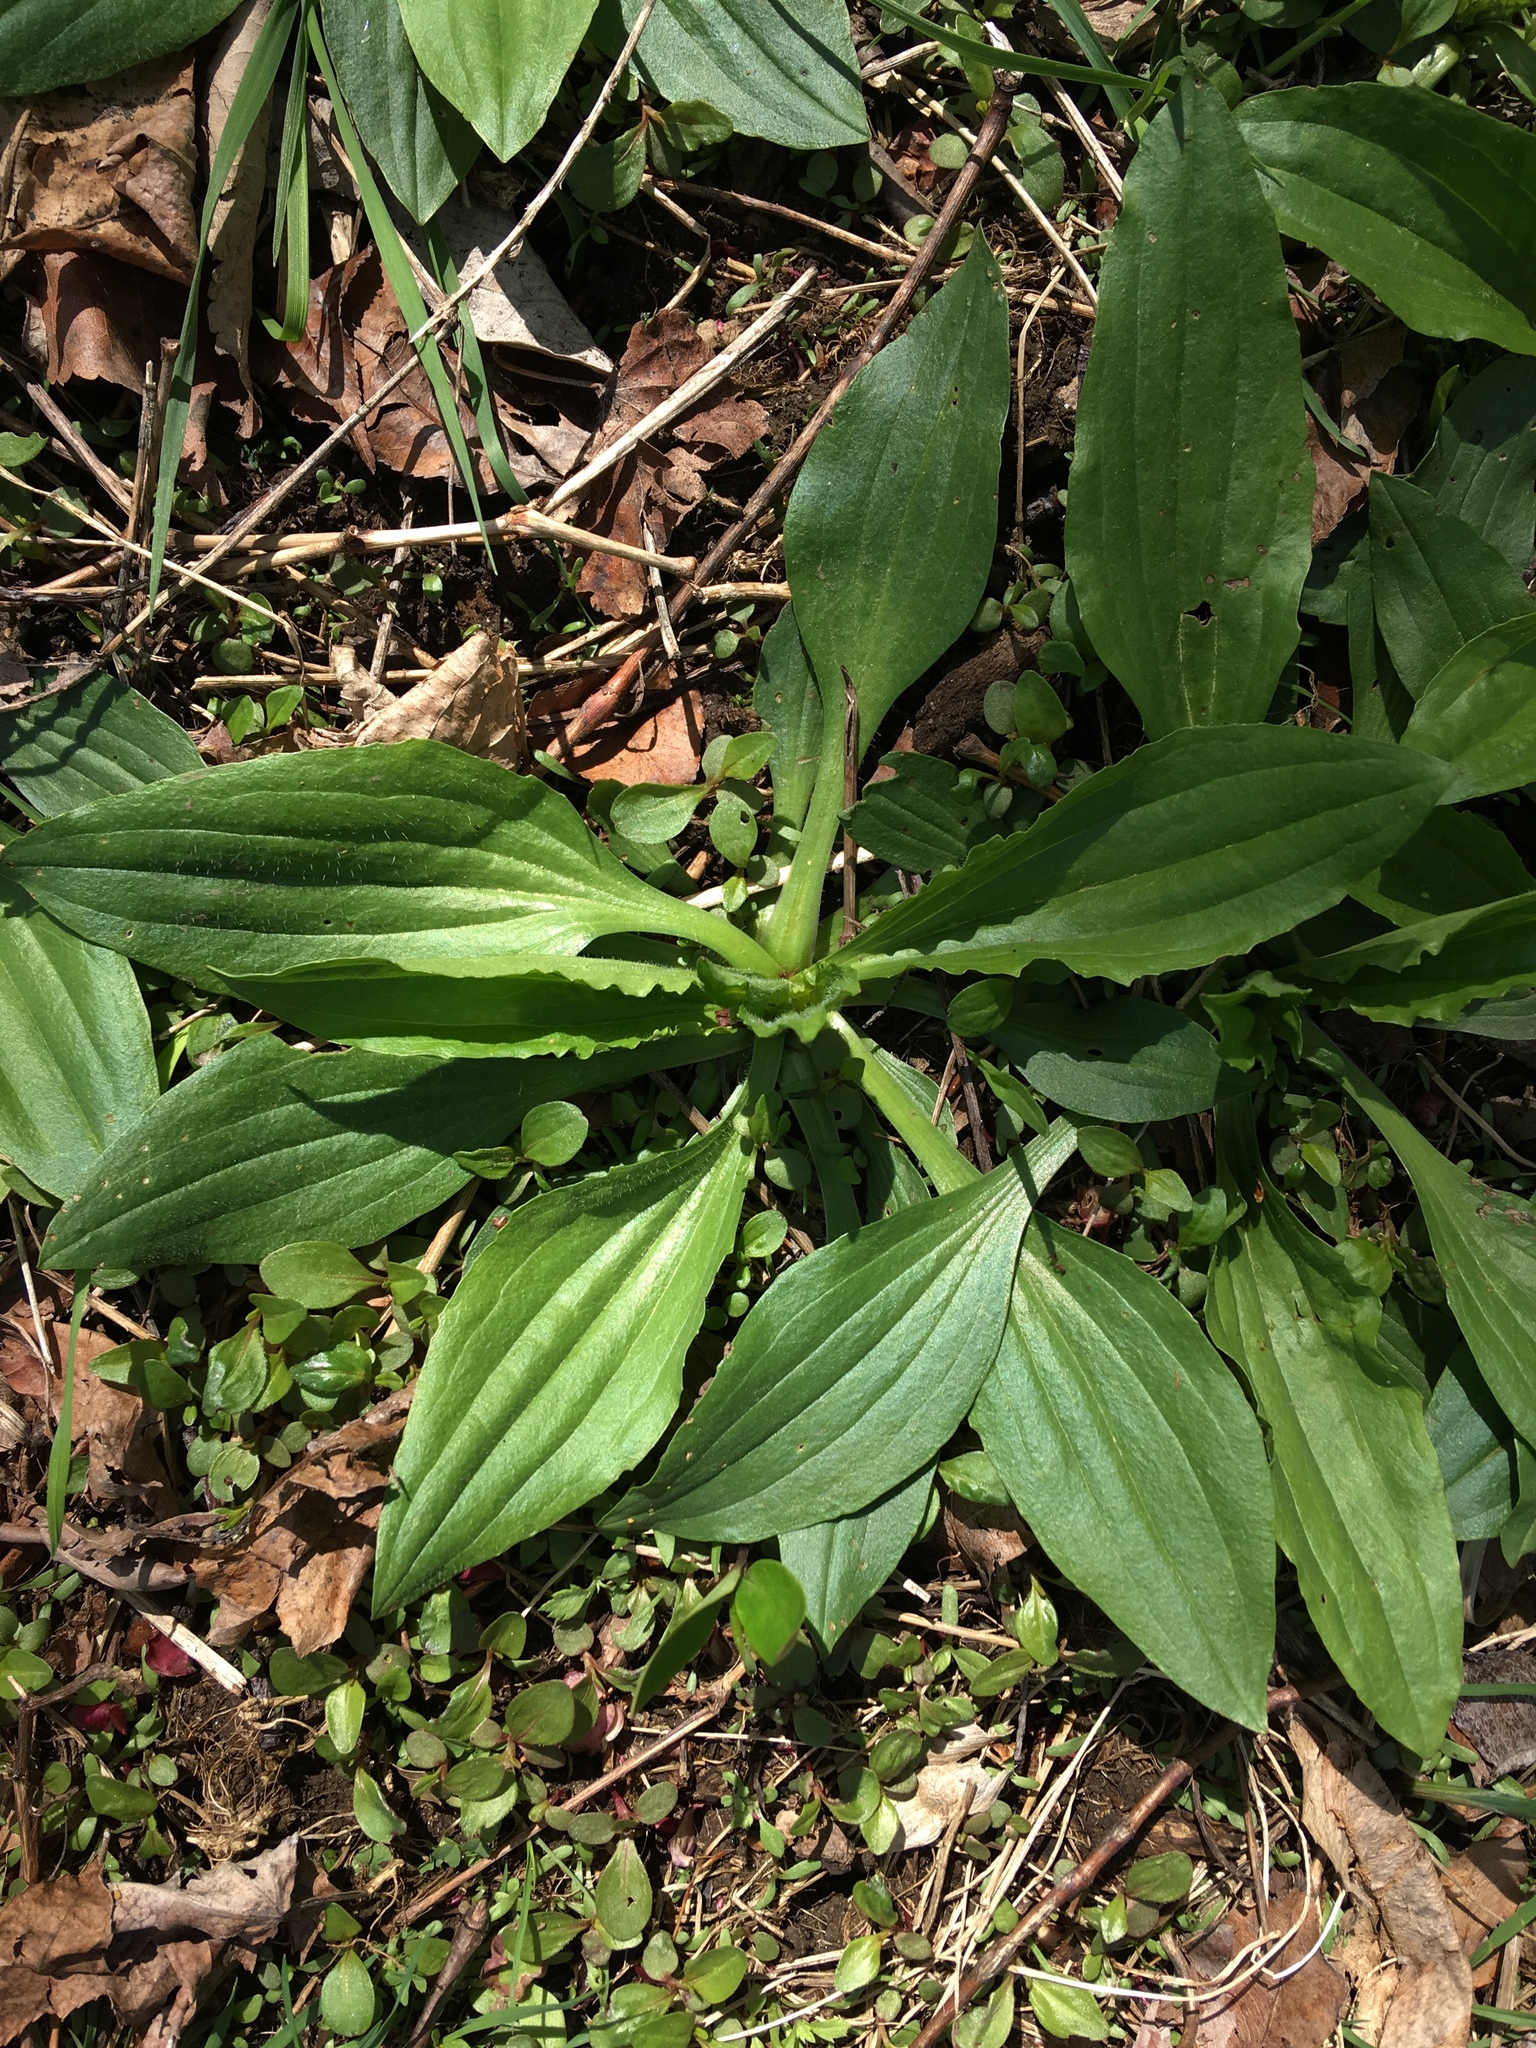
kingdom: Plantae
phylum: Tracheophyta
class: Magnoliopsida
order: Lamiales
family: Plantaginaceae
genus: Plantago
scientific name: Plantago lanceolata
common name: Ribwort plantain
